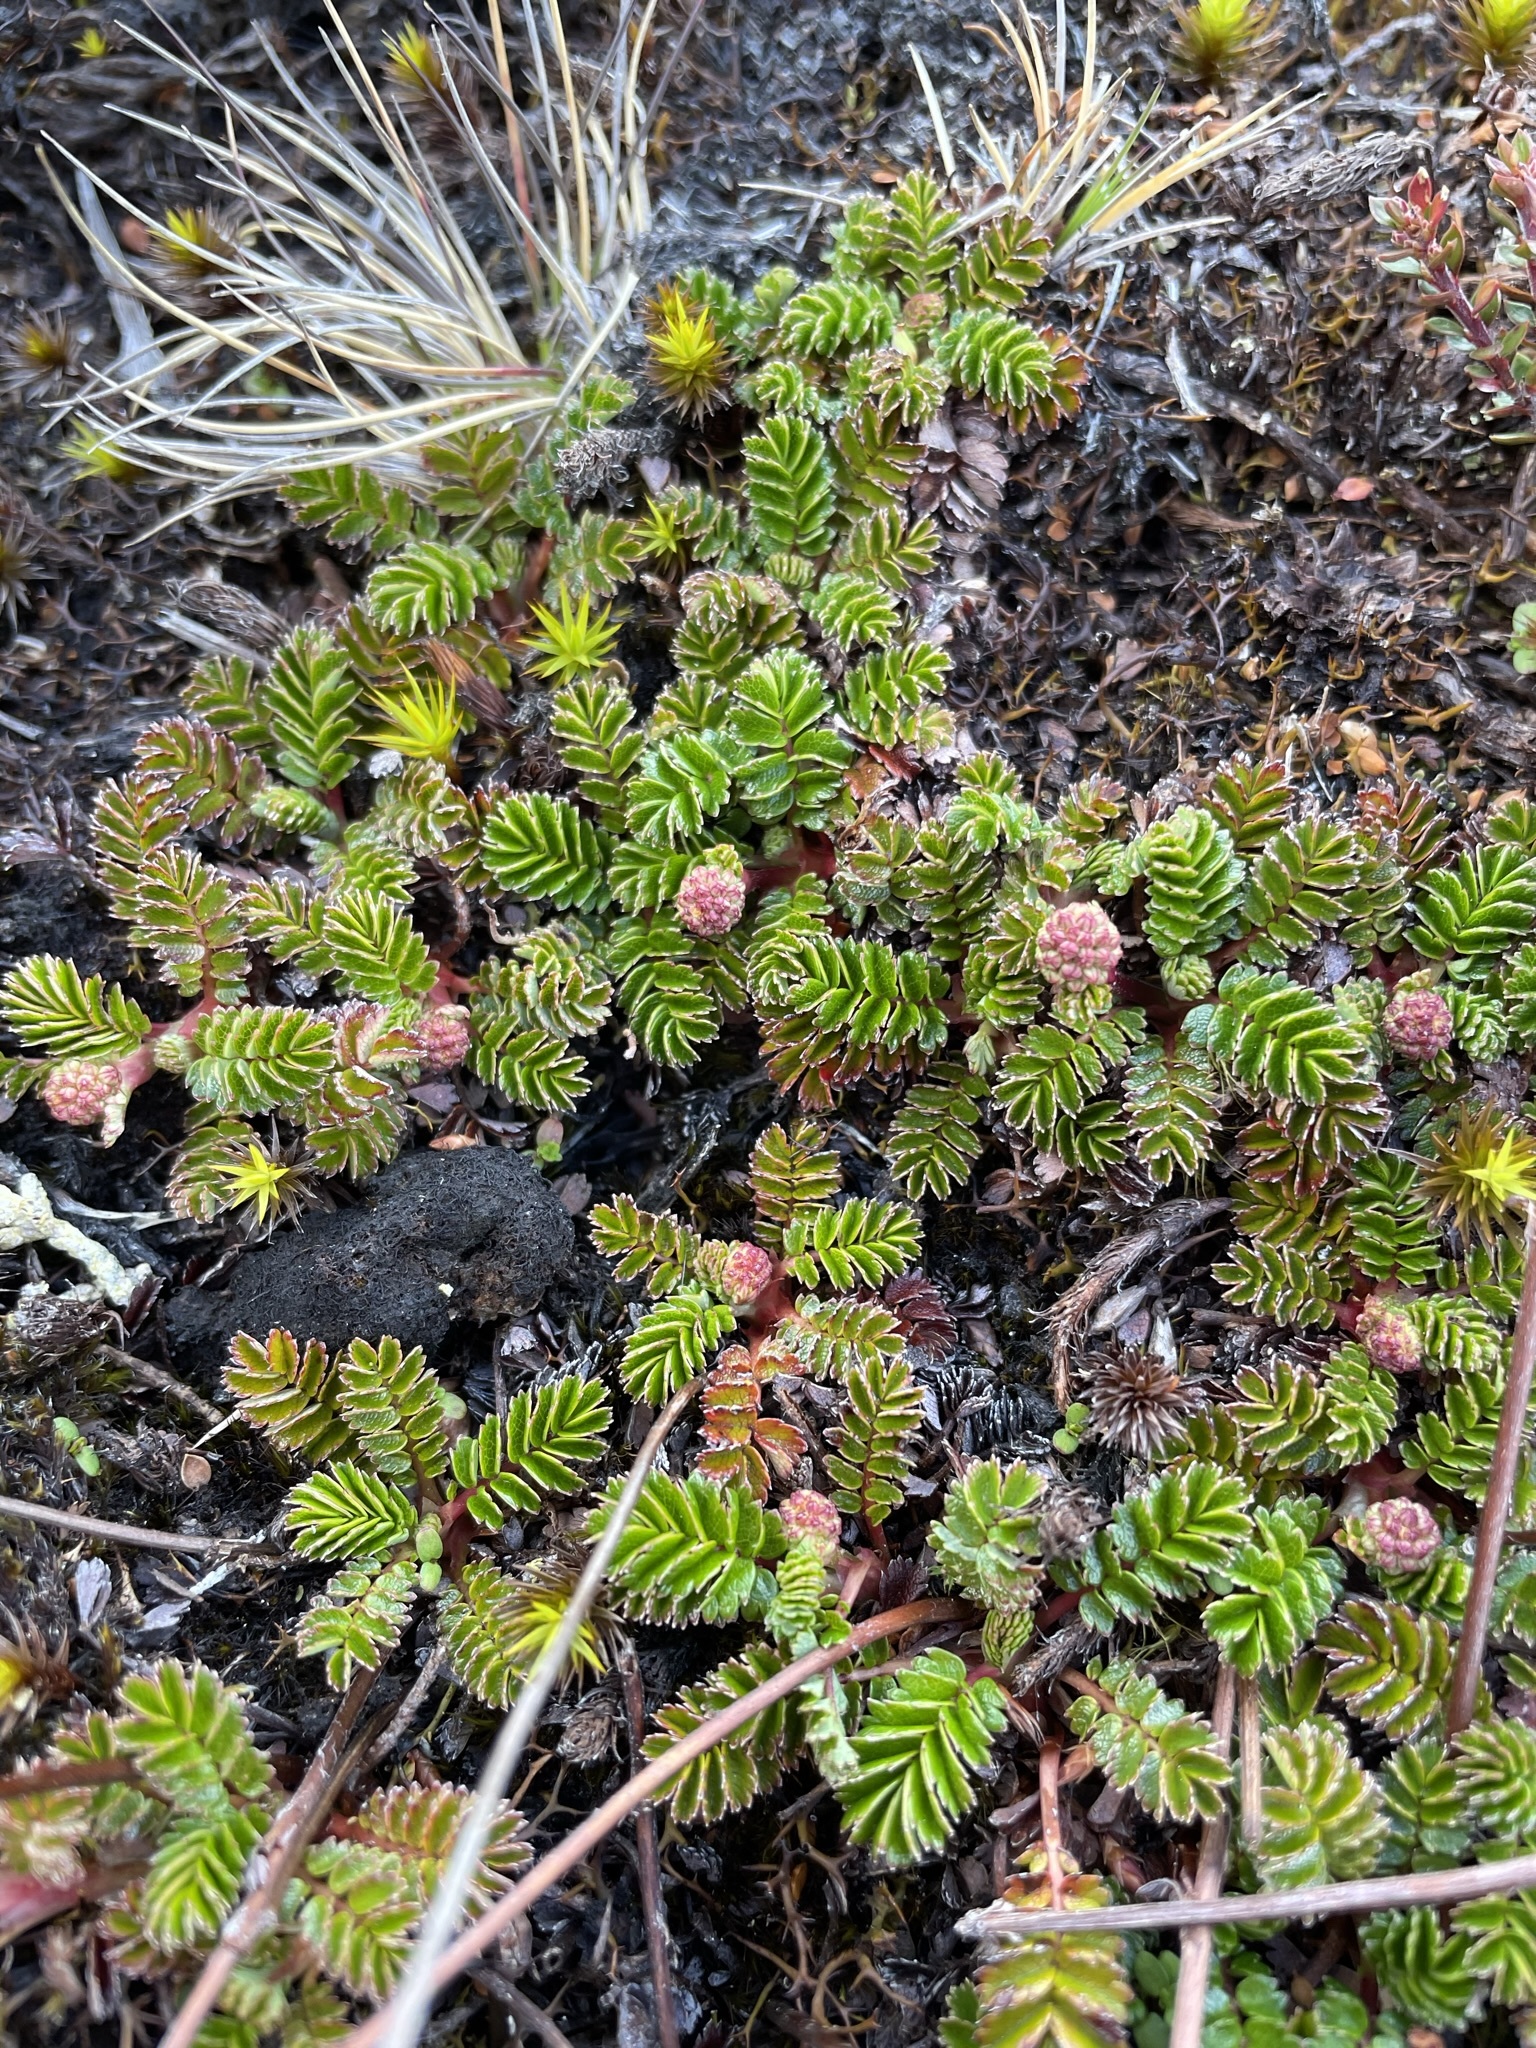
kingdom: Plantae
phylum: Tracheophyta
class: Magnoliopsida
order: Rosales
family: Rosaceae
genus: Acaena
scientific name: Acaena montana
